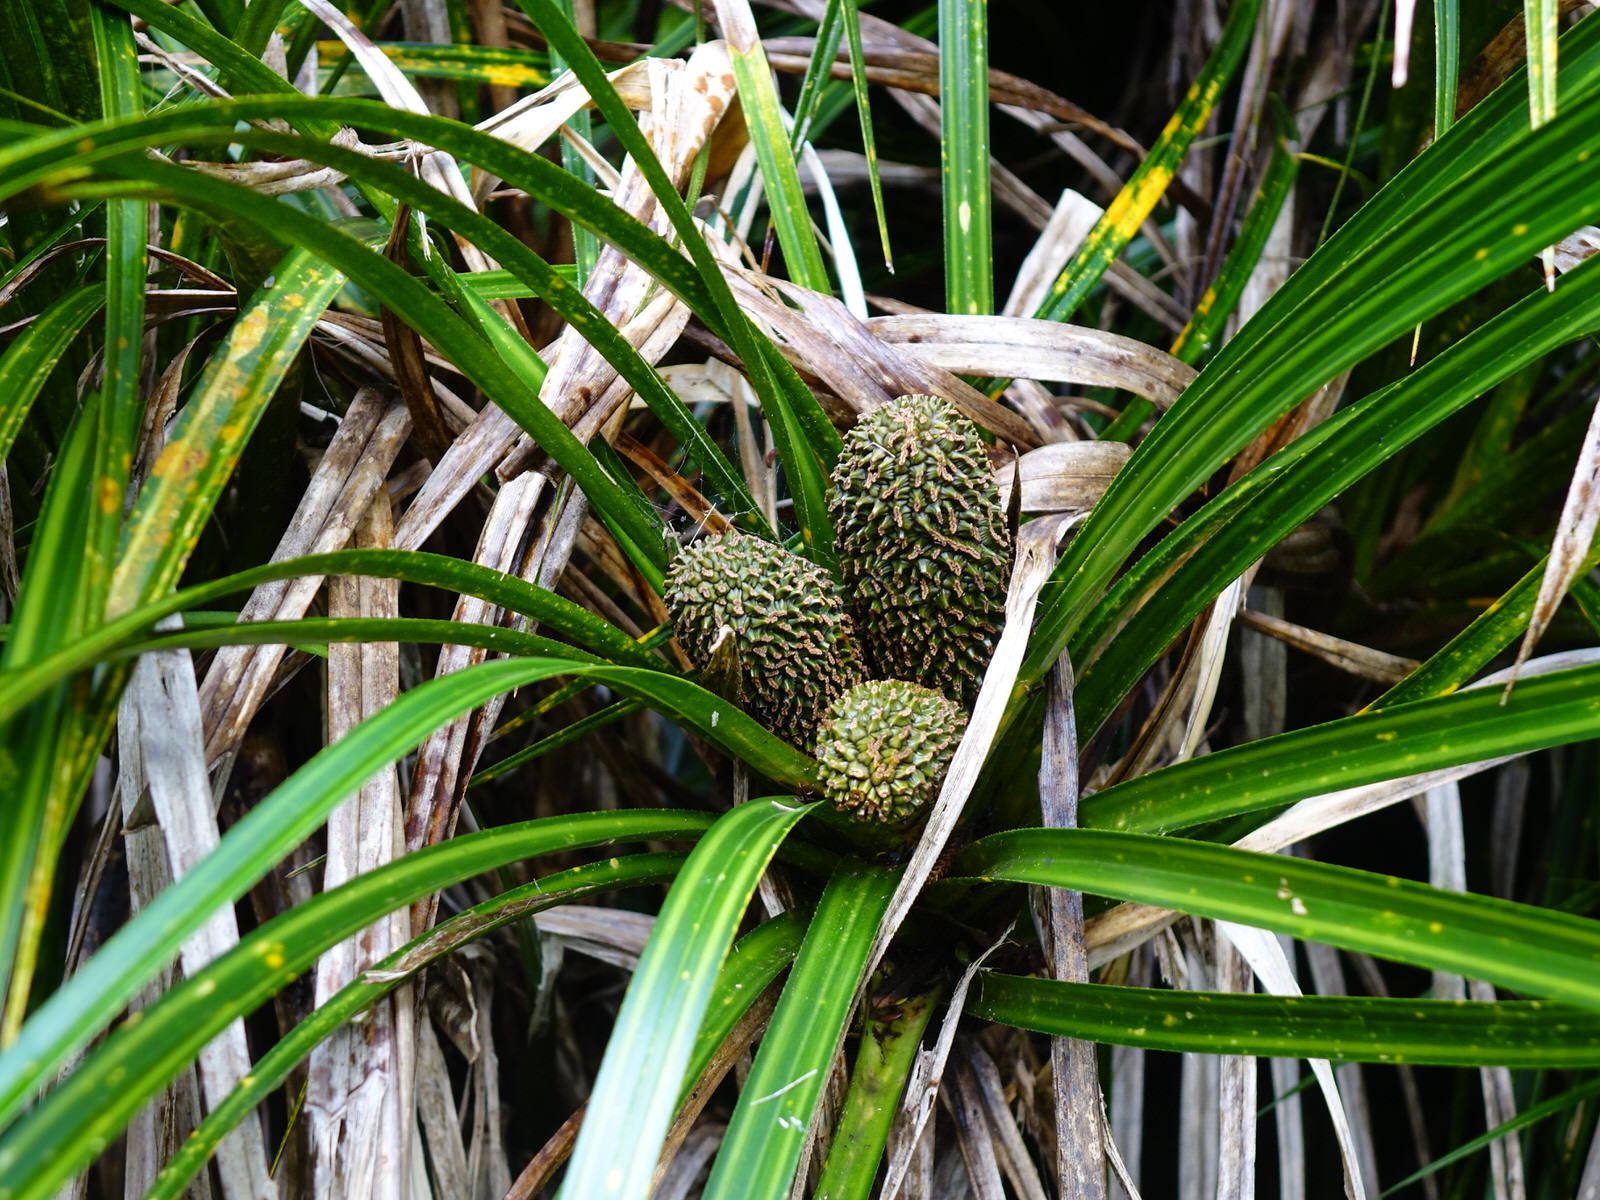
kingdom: Plantae
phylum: Tracheophyta
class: Liliopsida
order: Pandanales
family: Pandanaceae
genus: Freycinetia
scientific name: Freycinetia banksii
